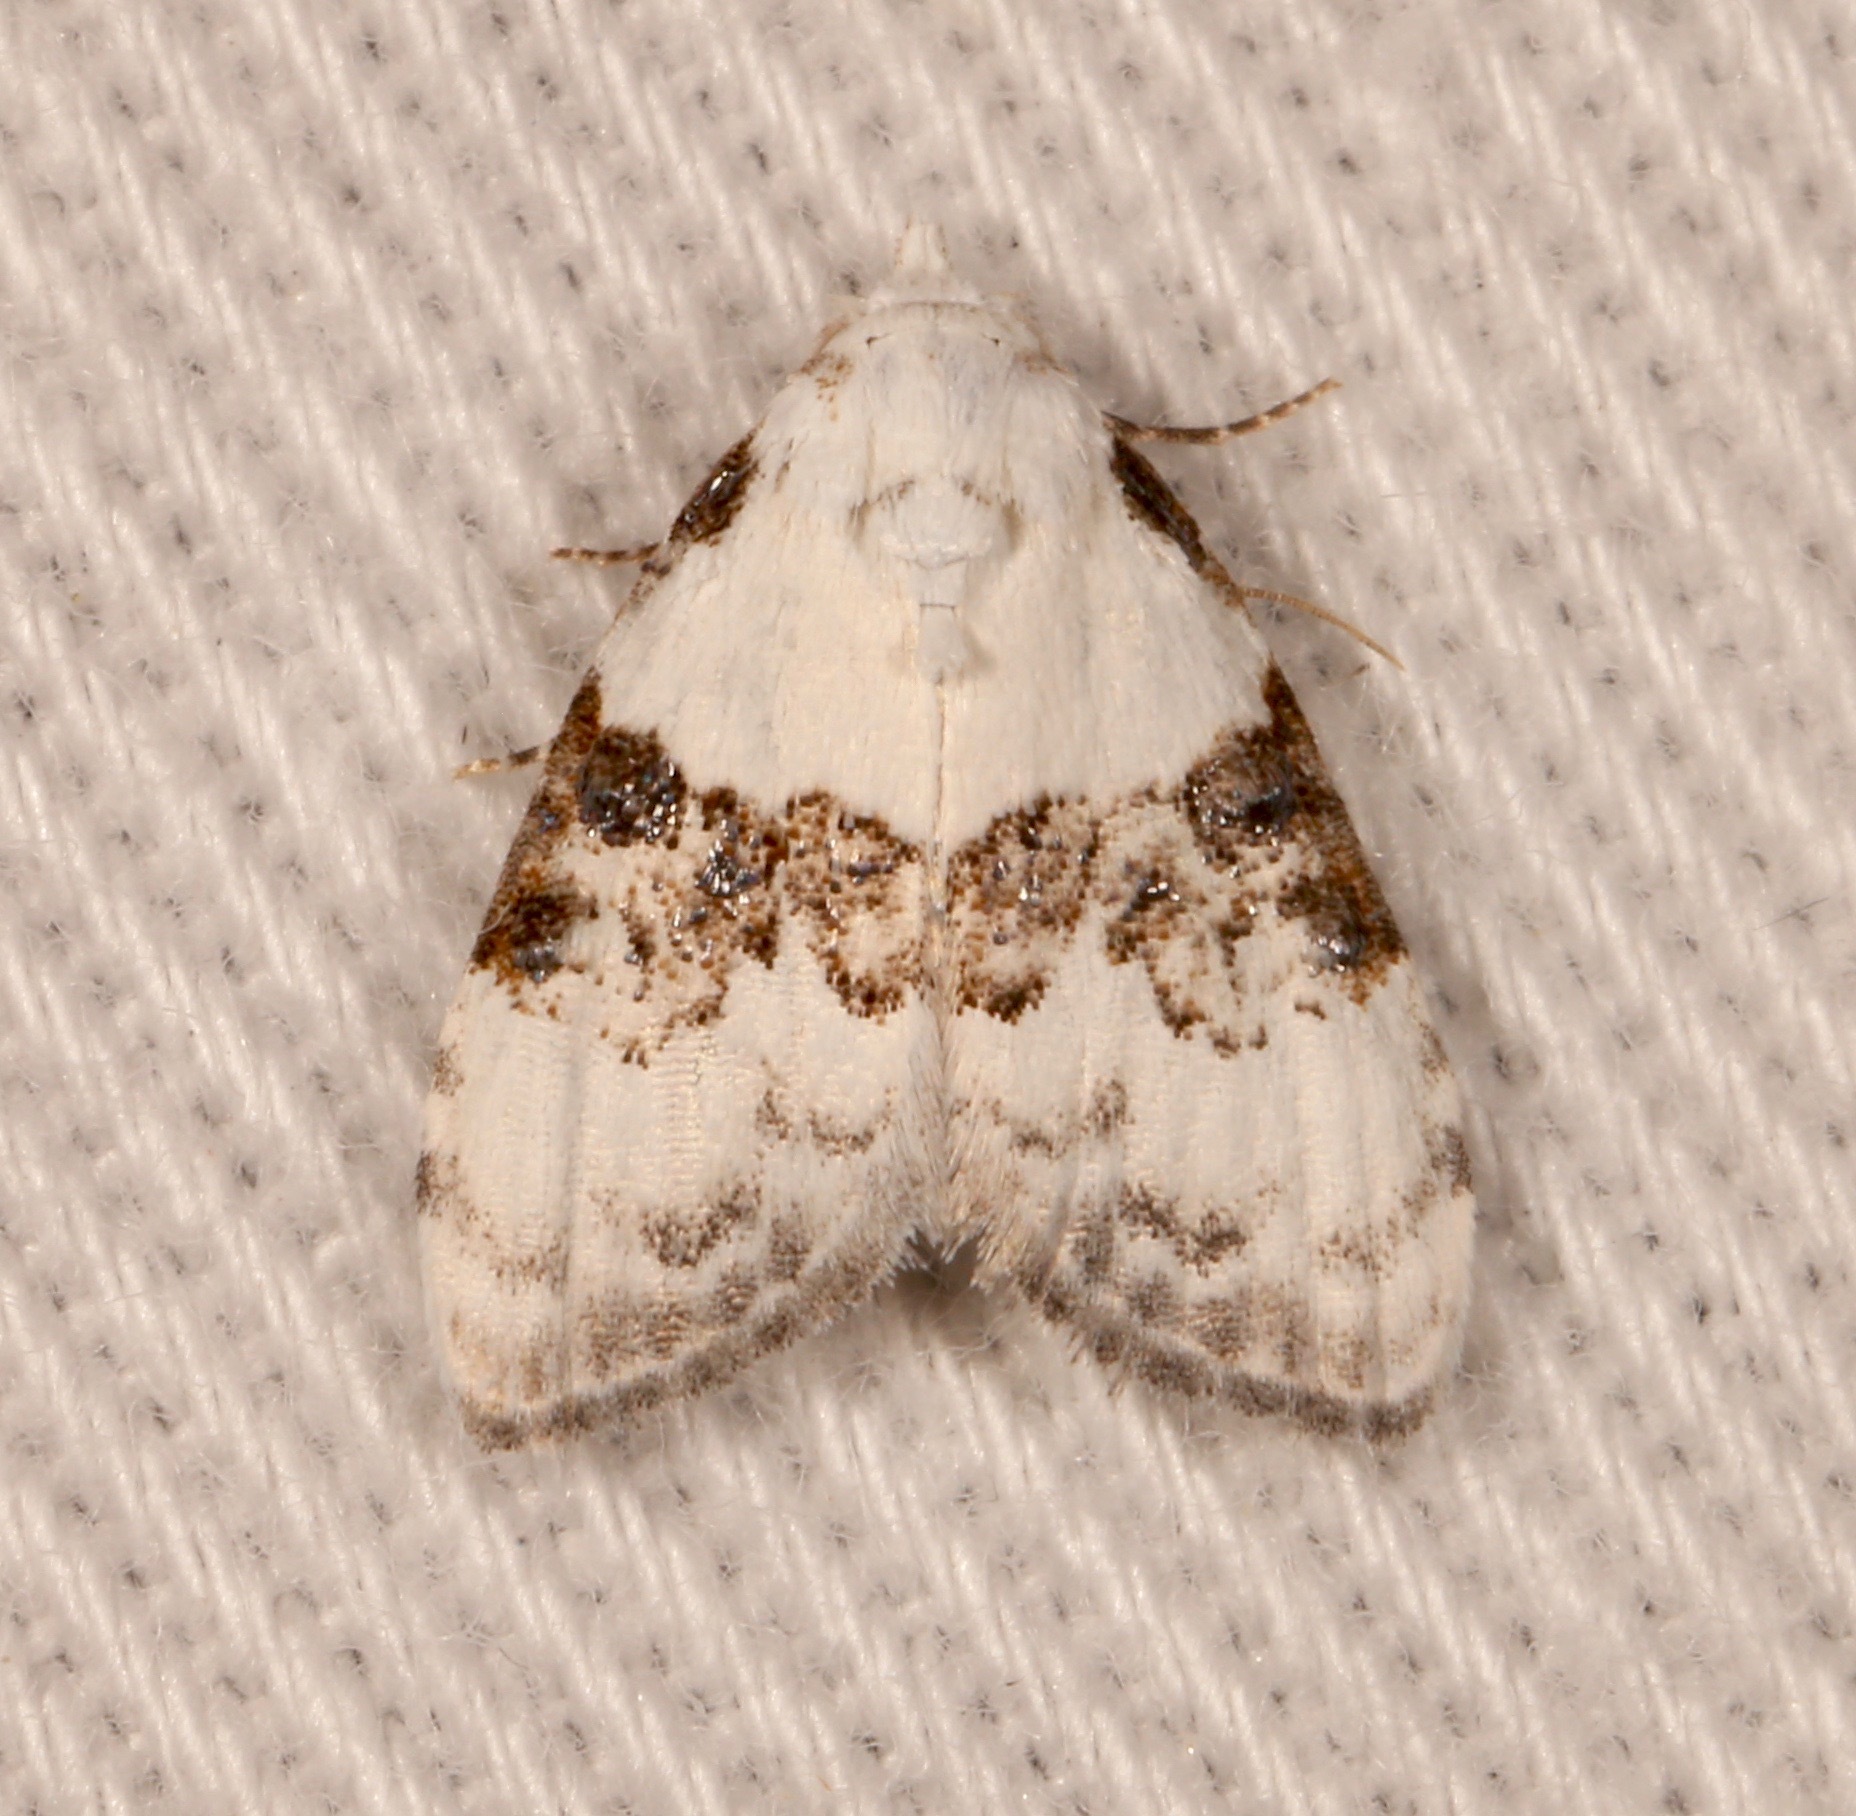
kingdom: Animalia
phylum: Arthropoda
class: Insecta
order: Lepidoptera
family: Nolidae
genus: Nola
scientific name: Nola pustulata
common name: Sharp-blotched nola moth
